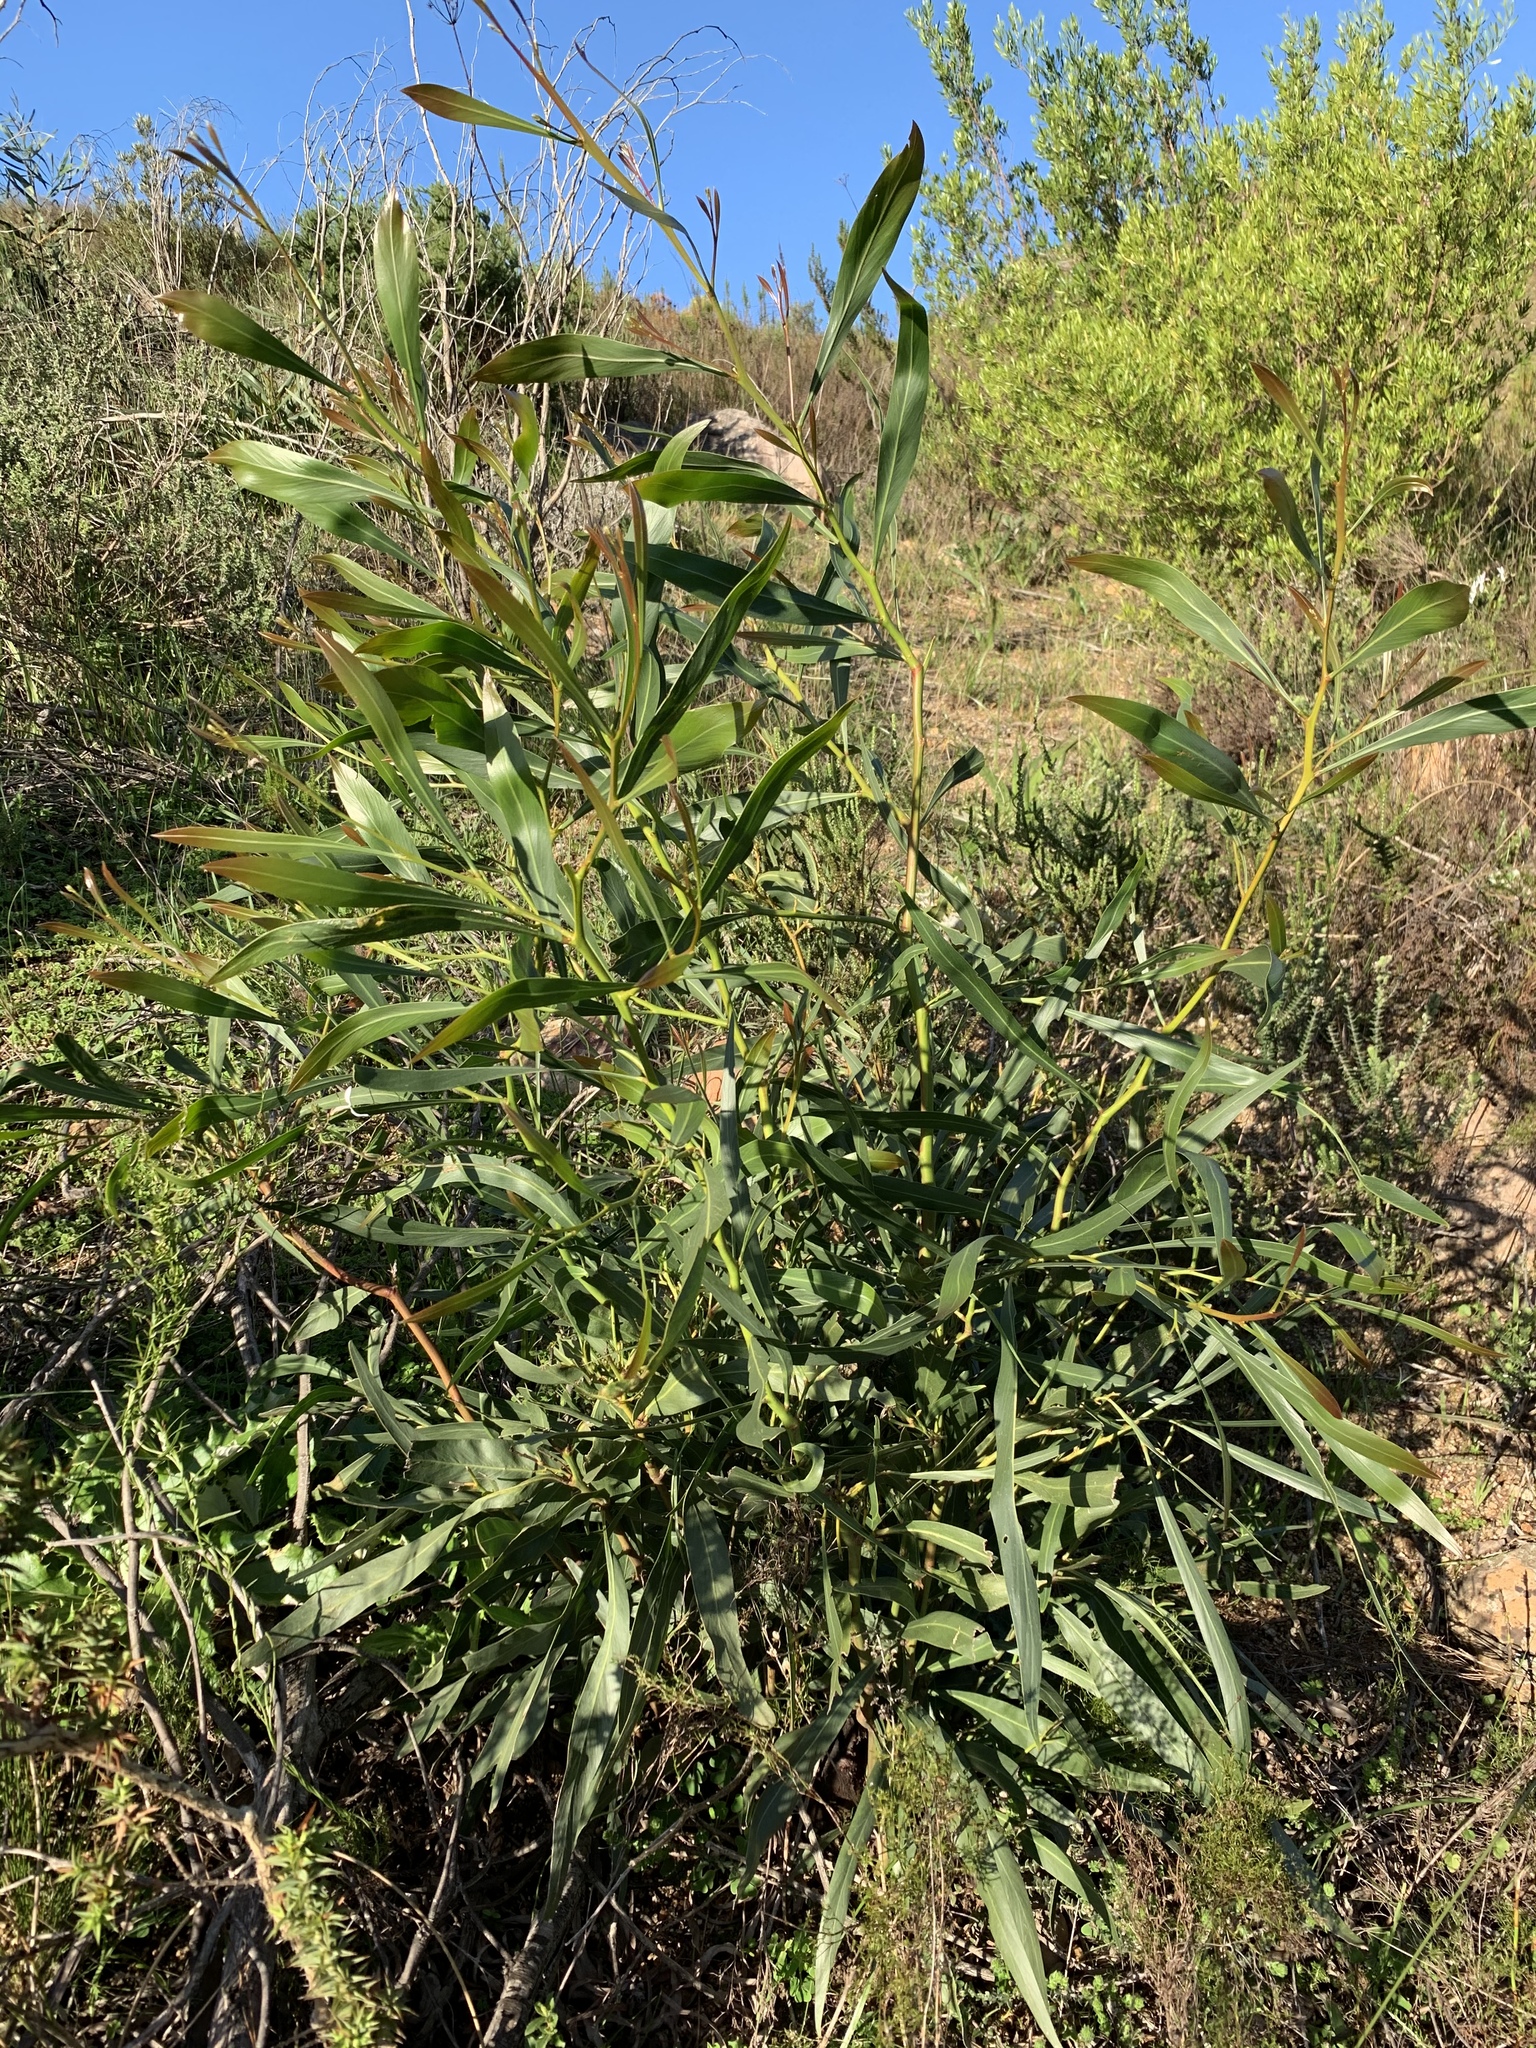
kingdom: Plantae
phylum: Tracheophyta
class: Magnoliopsida
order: Fabales
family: Fabaceae
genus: Acacia
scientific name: Acacia saligna
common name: Orange wattle
